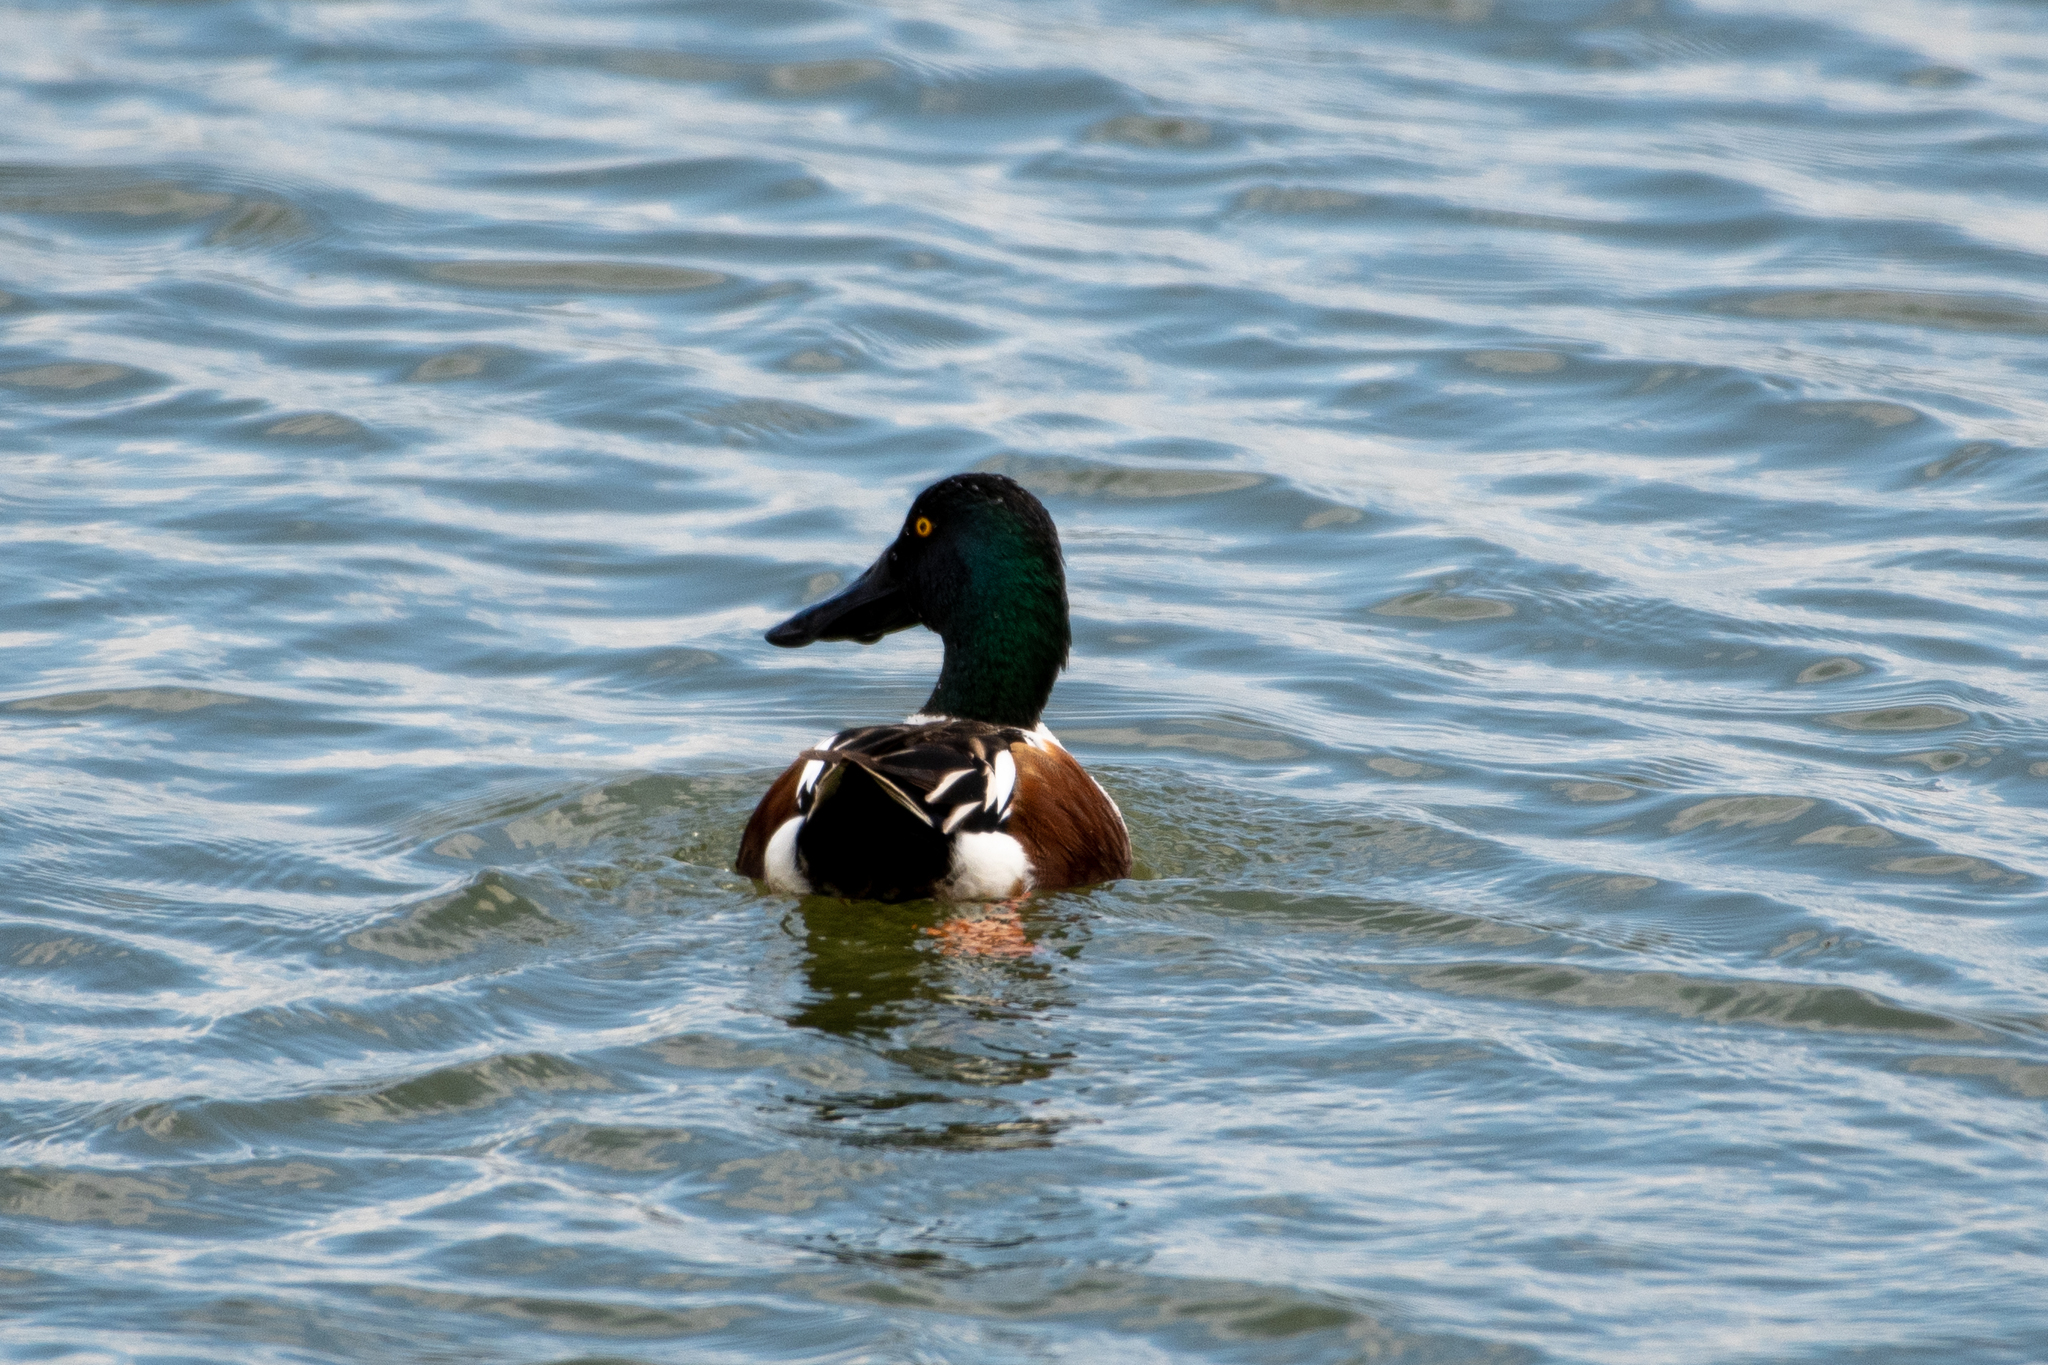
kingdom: Animalia
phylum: Chordata
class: Aves
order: Anseriformes
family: Anatidae
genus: Spatula
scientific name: Spatula clypeata
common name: Northern shoveler
